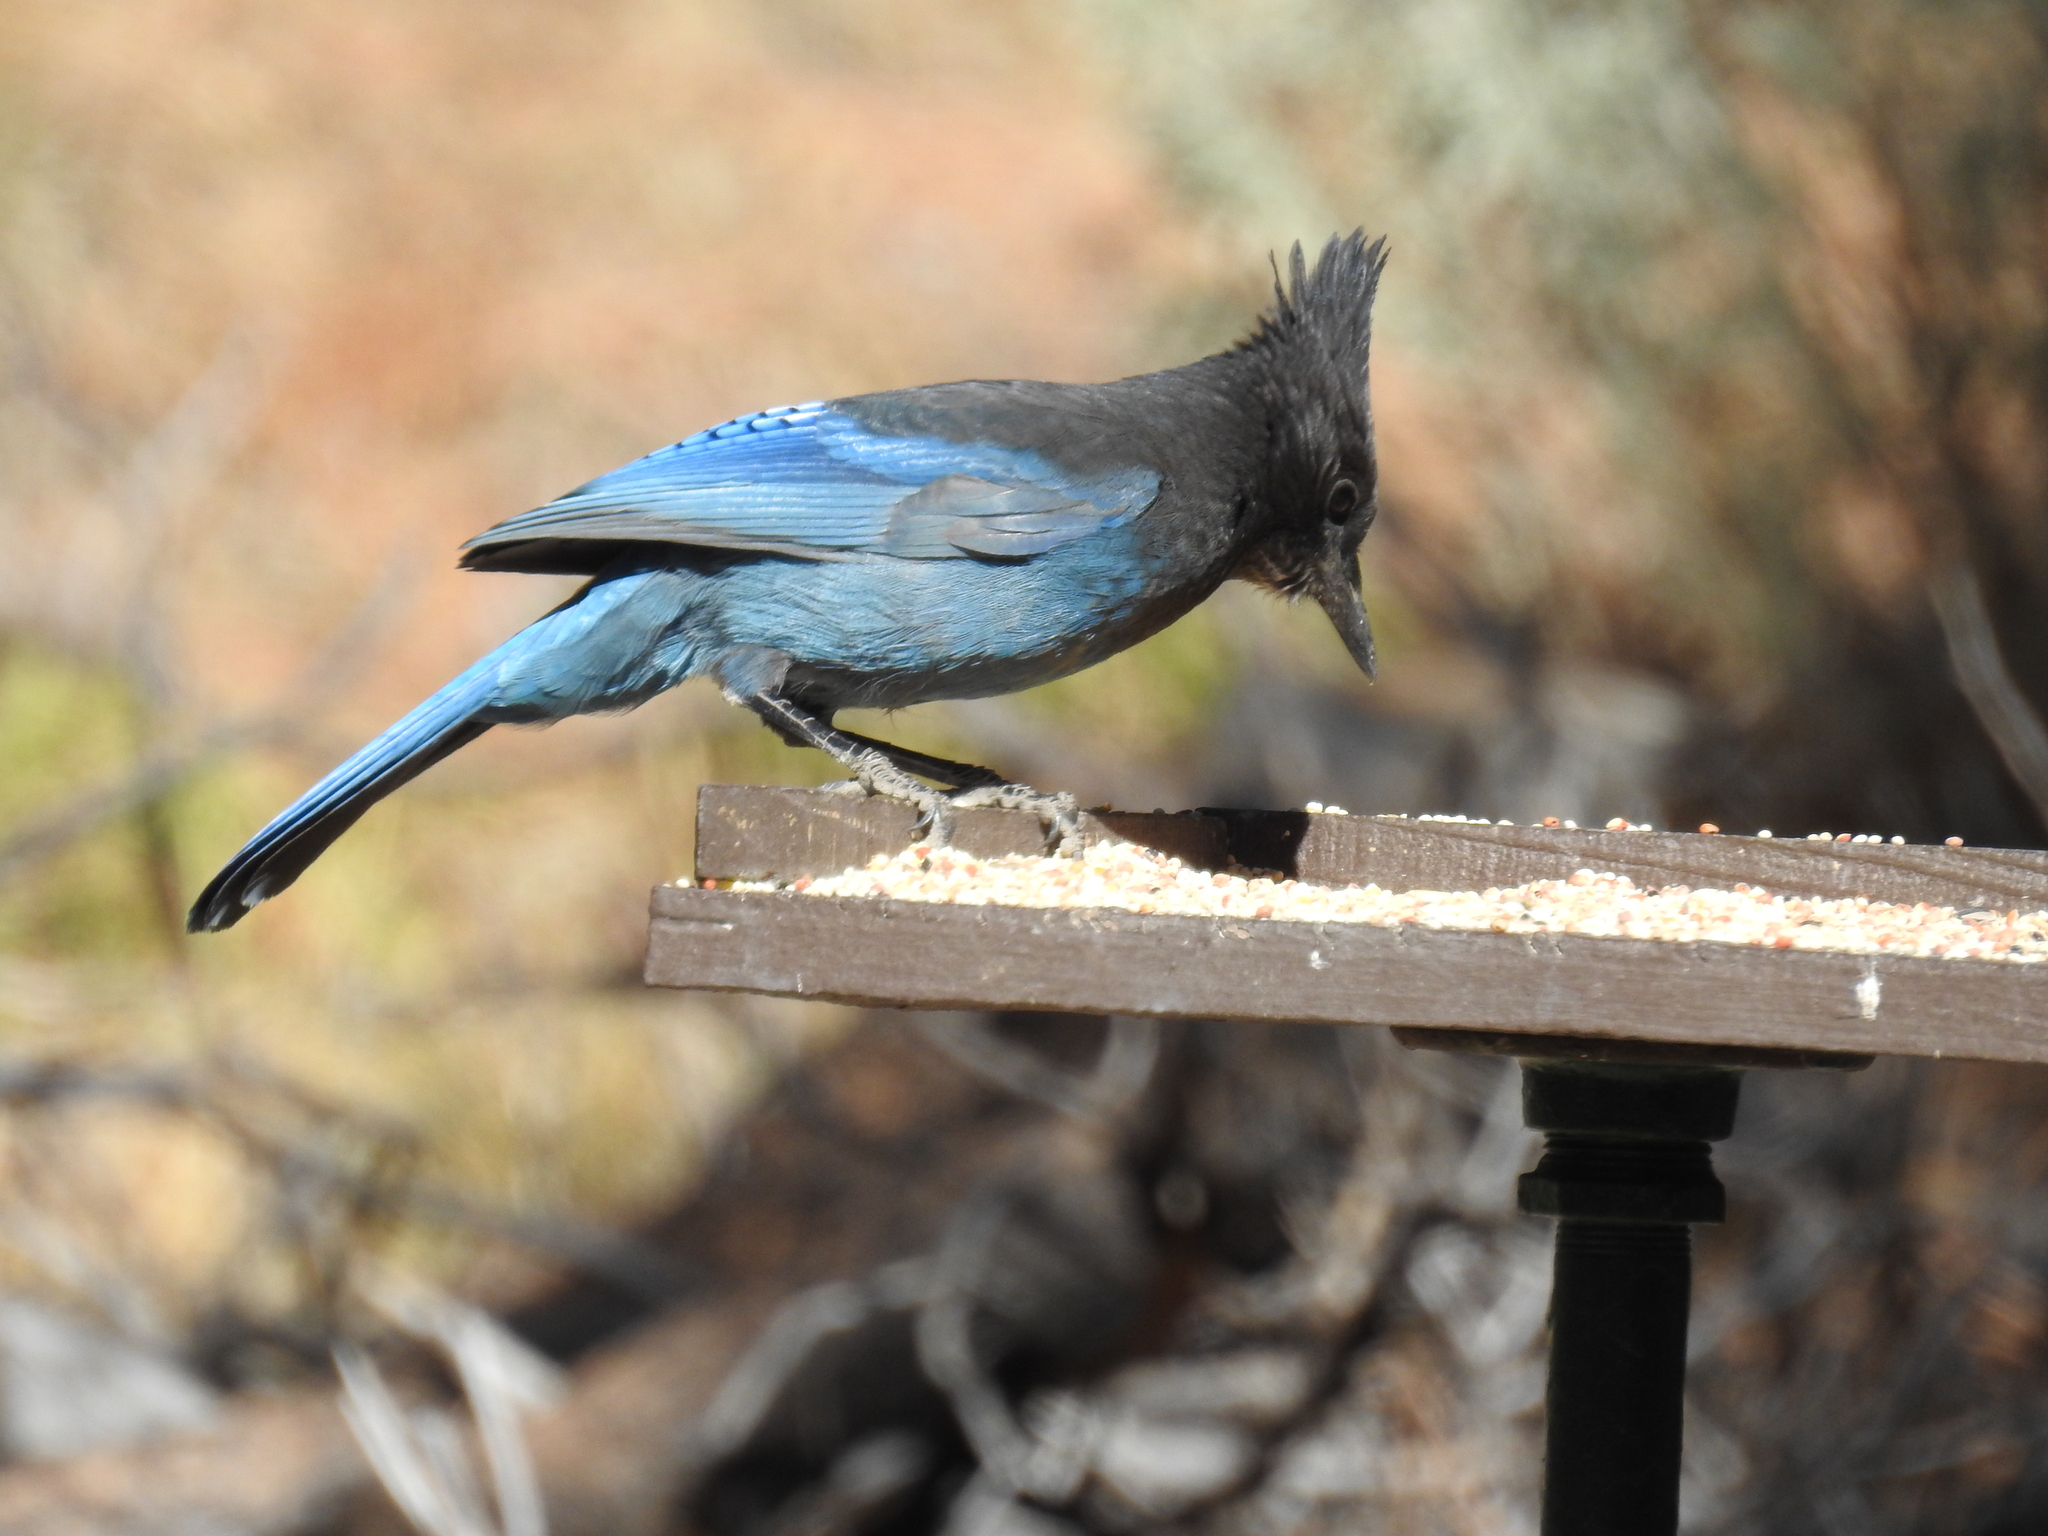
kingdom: Animalia
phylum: Chordata
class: Aves
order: Passeriformes
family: Corvidae
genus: Cyanocitta
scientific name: Cyanocitta stelleri
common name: Steller's jay
